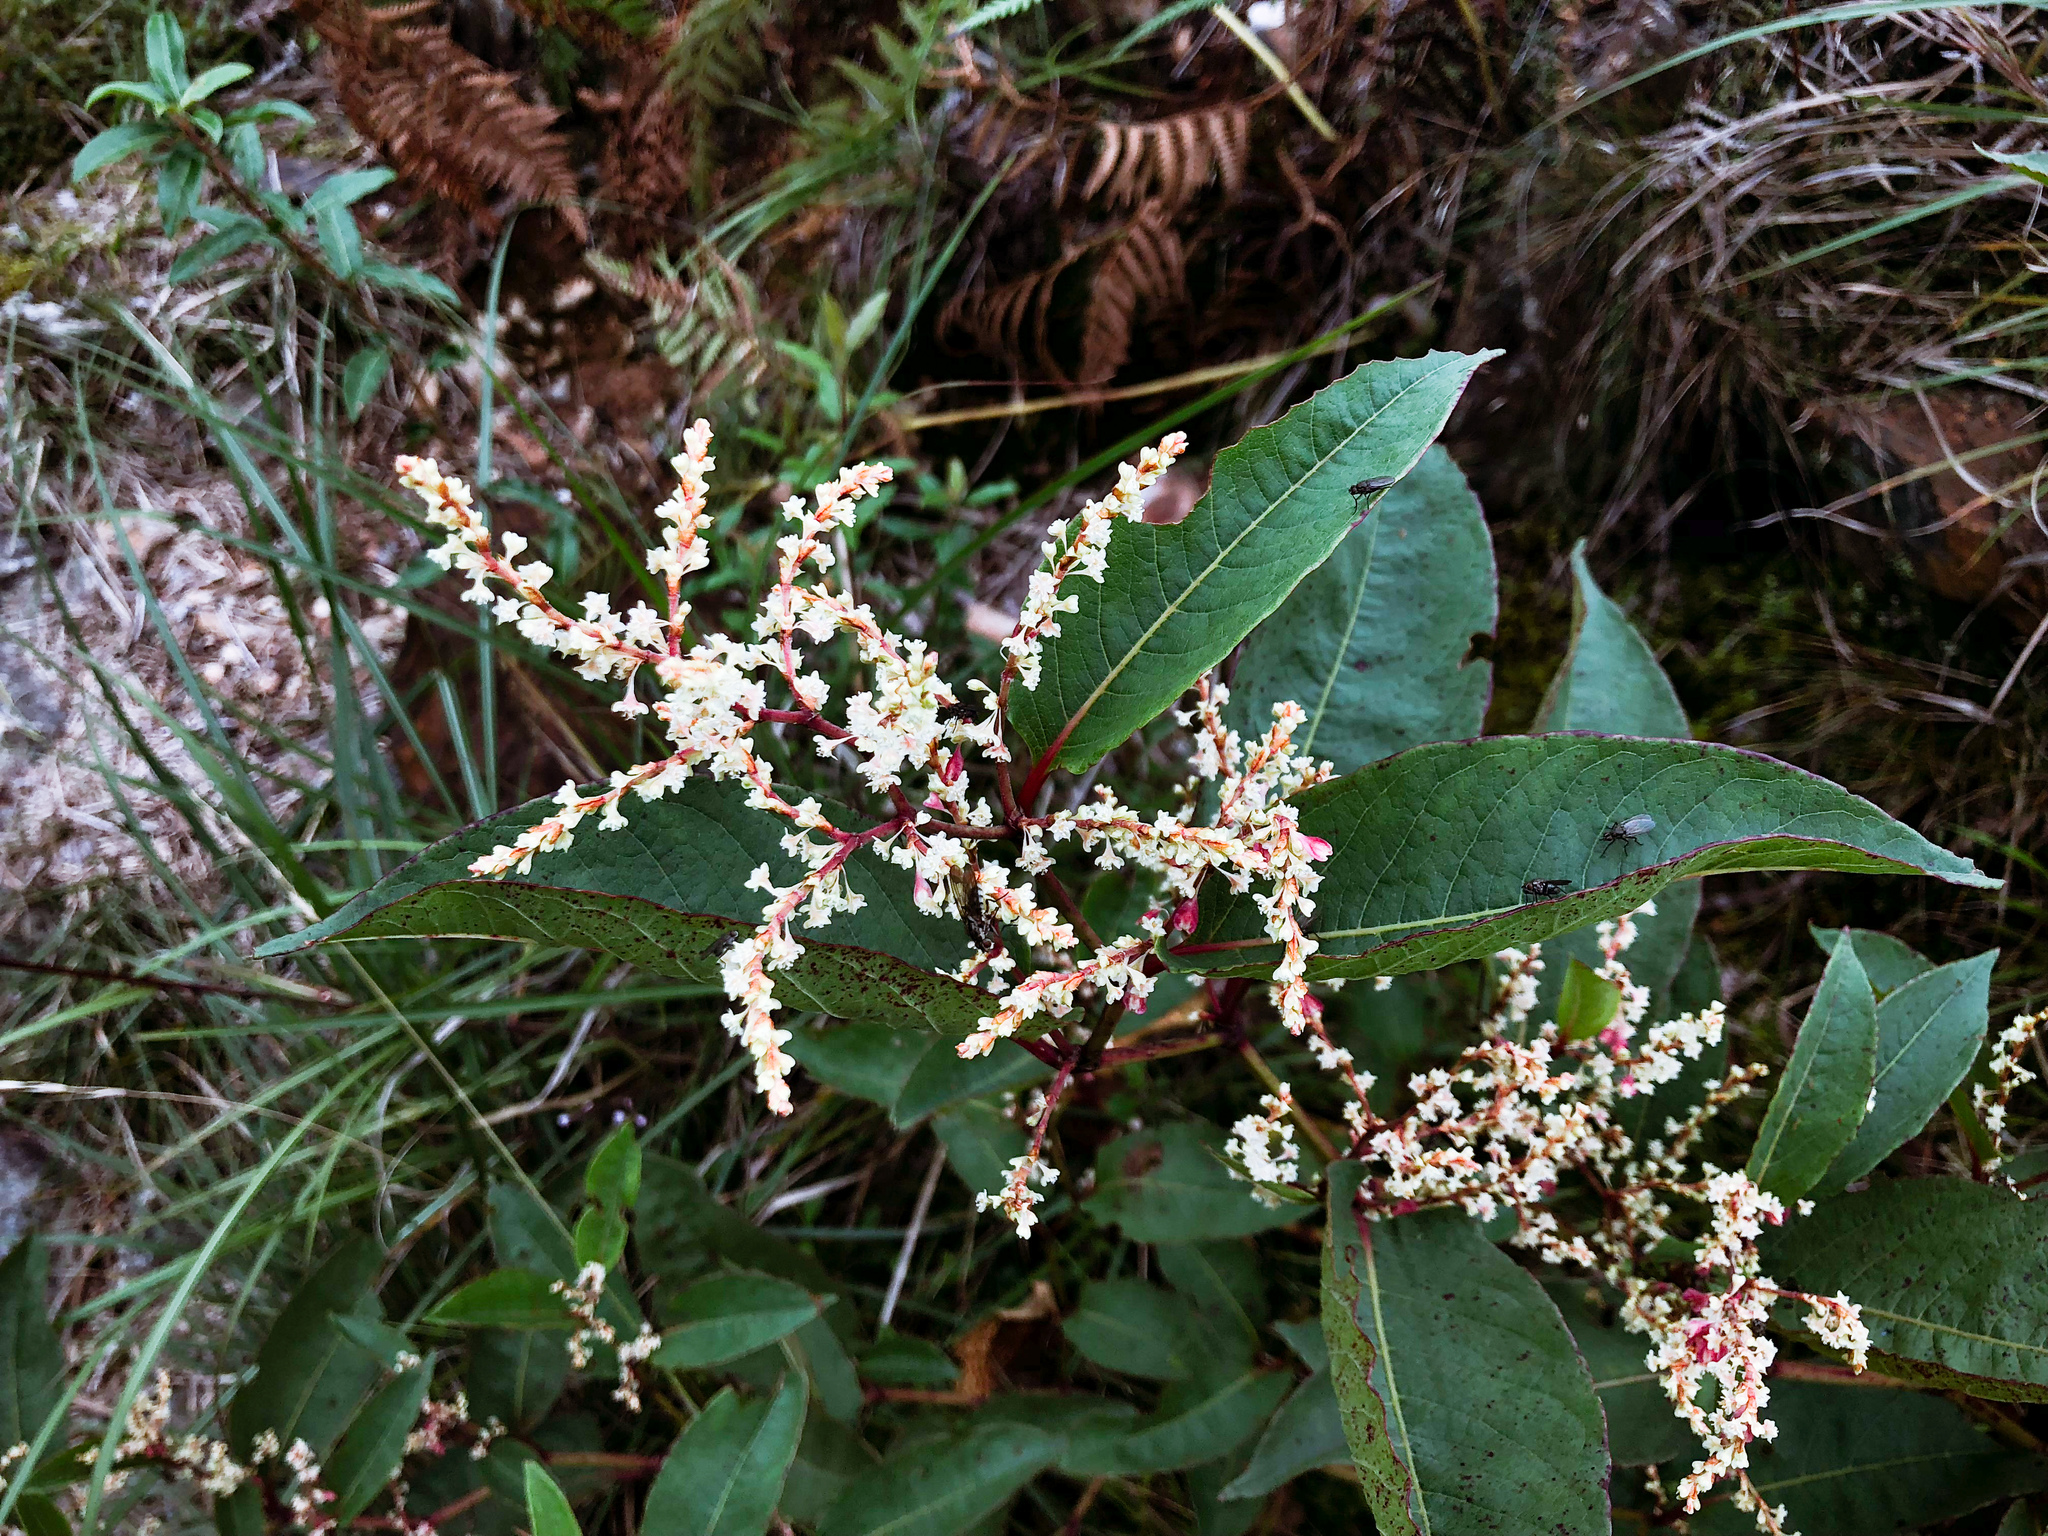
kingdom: Plantae
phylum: Tracheophyta
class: Magnoliopsida
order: Caryophyllales
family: Polygonaceae
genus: Reynoutria
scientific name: Reynoutria japonica
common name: Japanese knotweed
